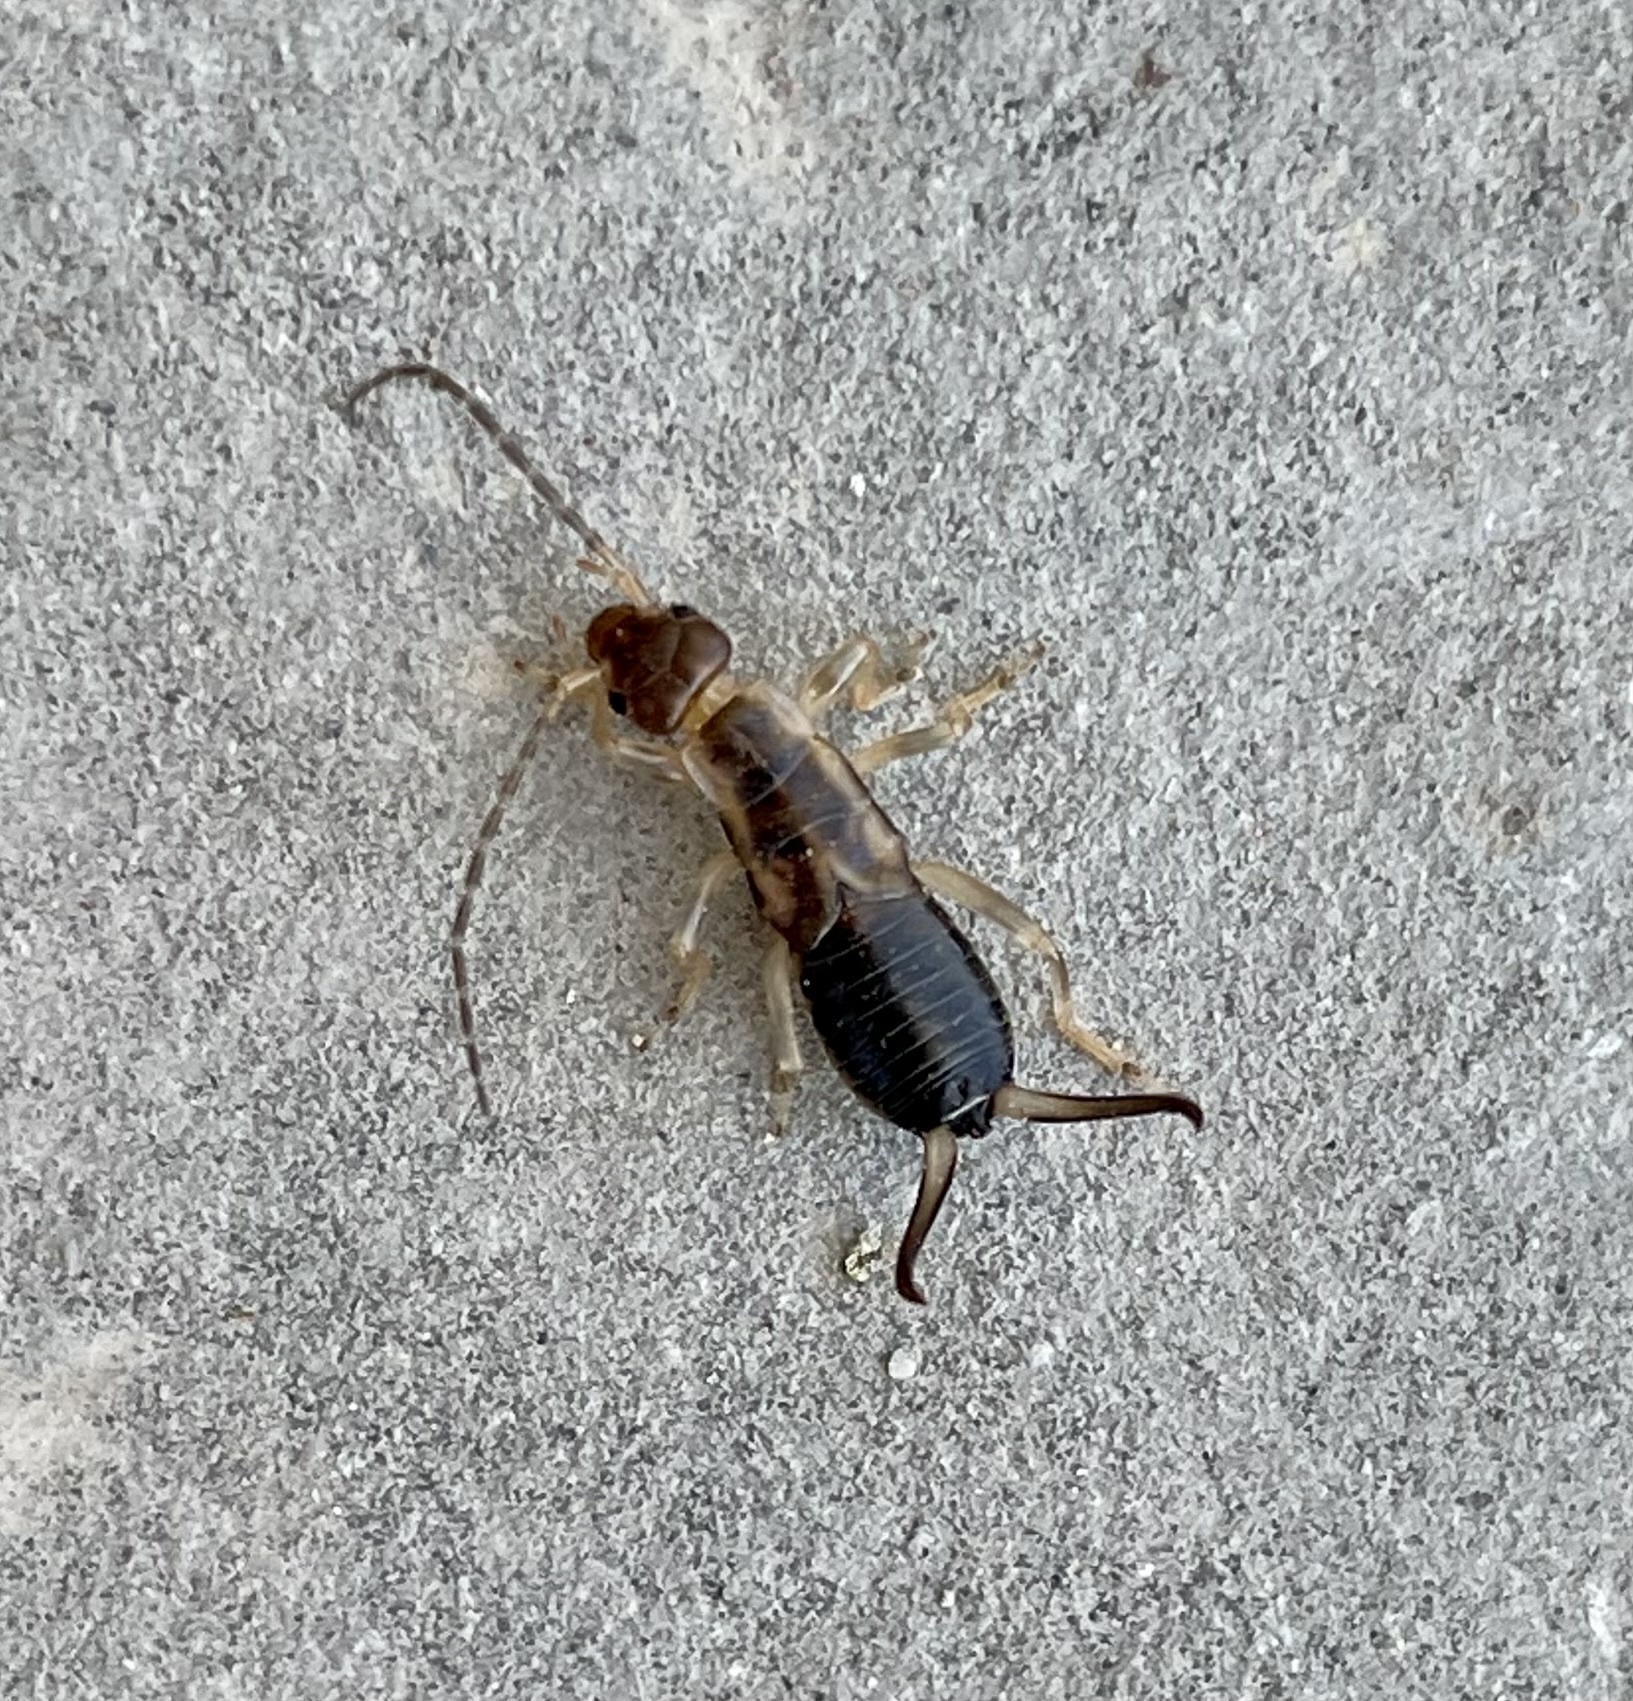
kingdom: Animalia
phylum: Arthropoda
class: Insecta
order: Dermaptera
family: Forficulidae
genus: Forficula
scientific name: Forficula
